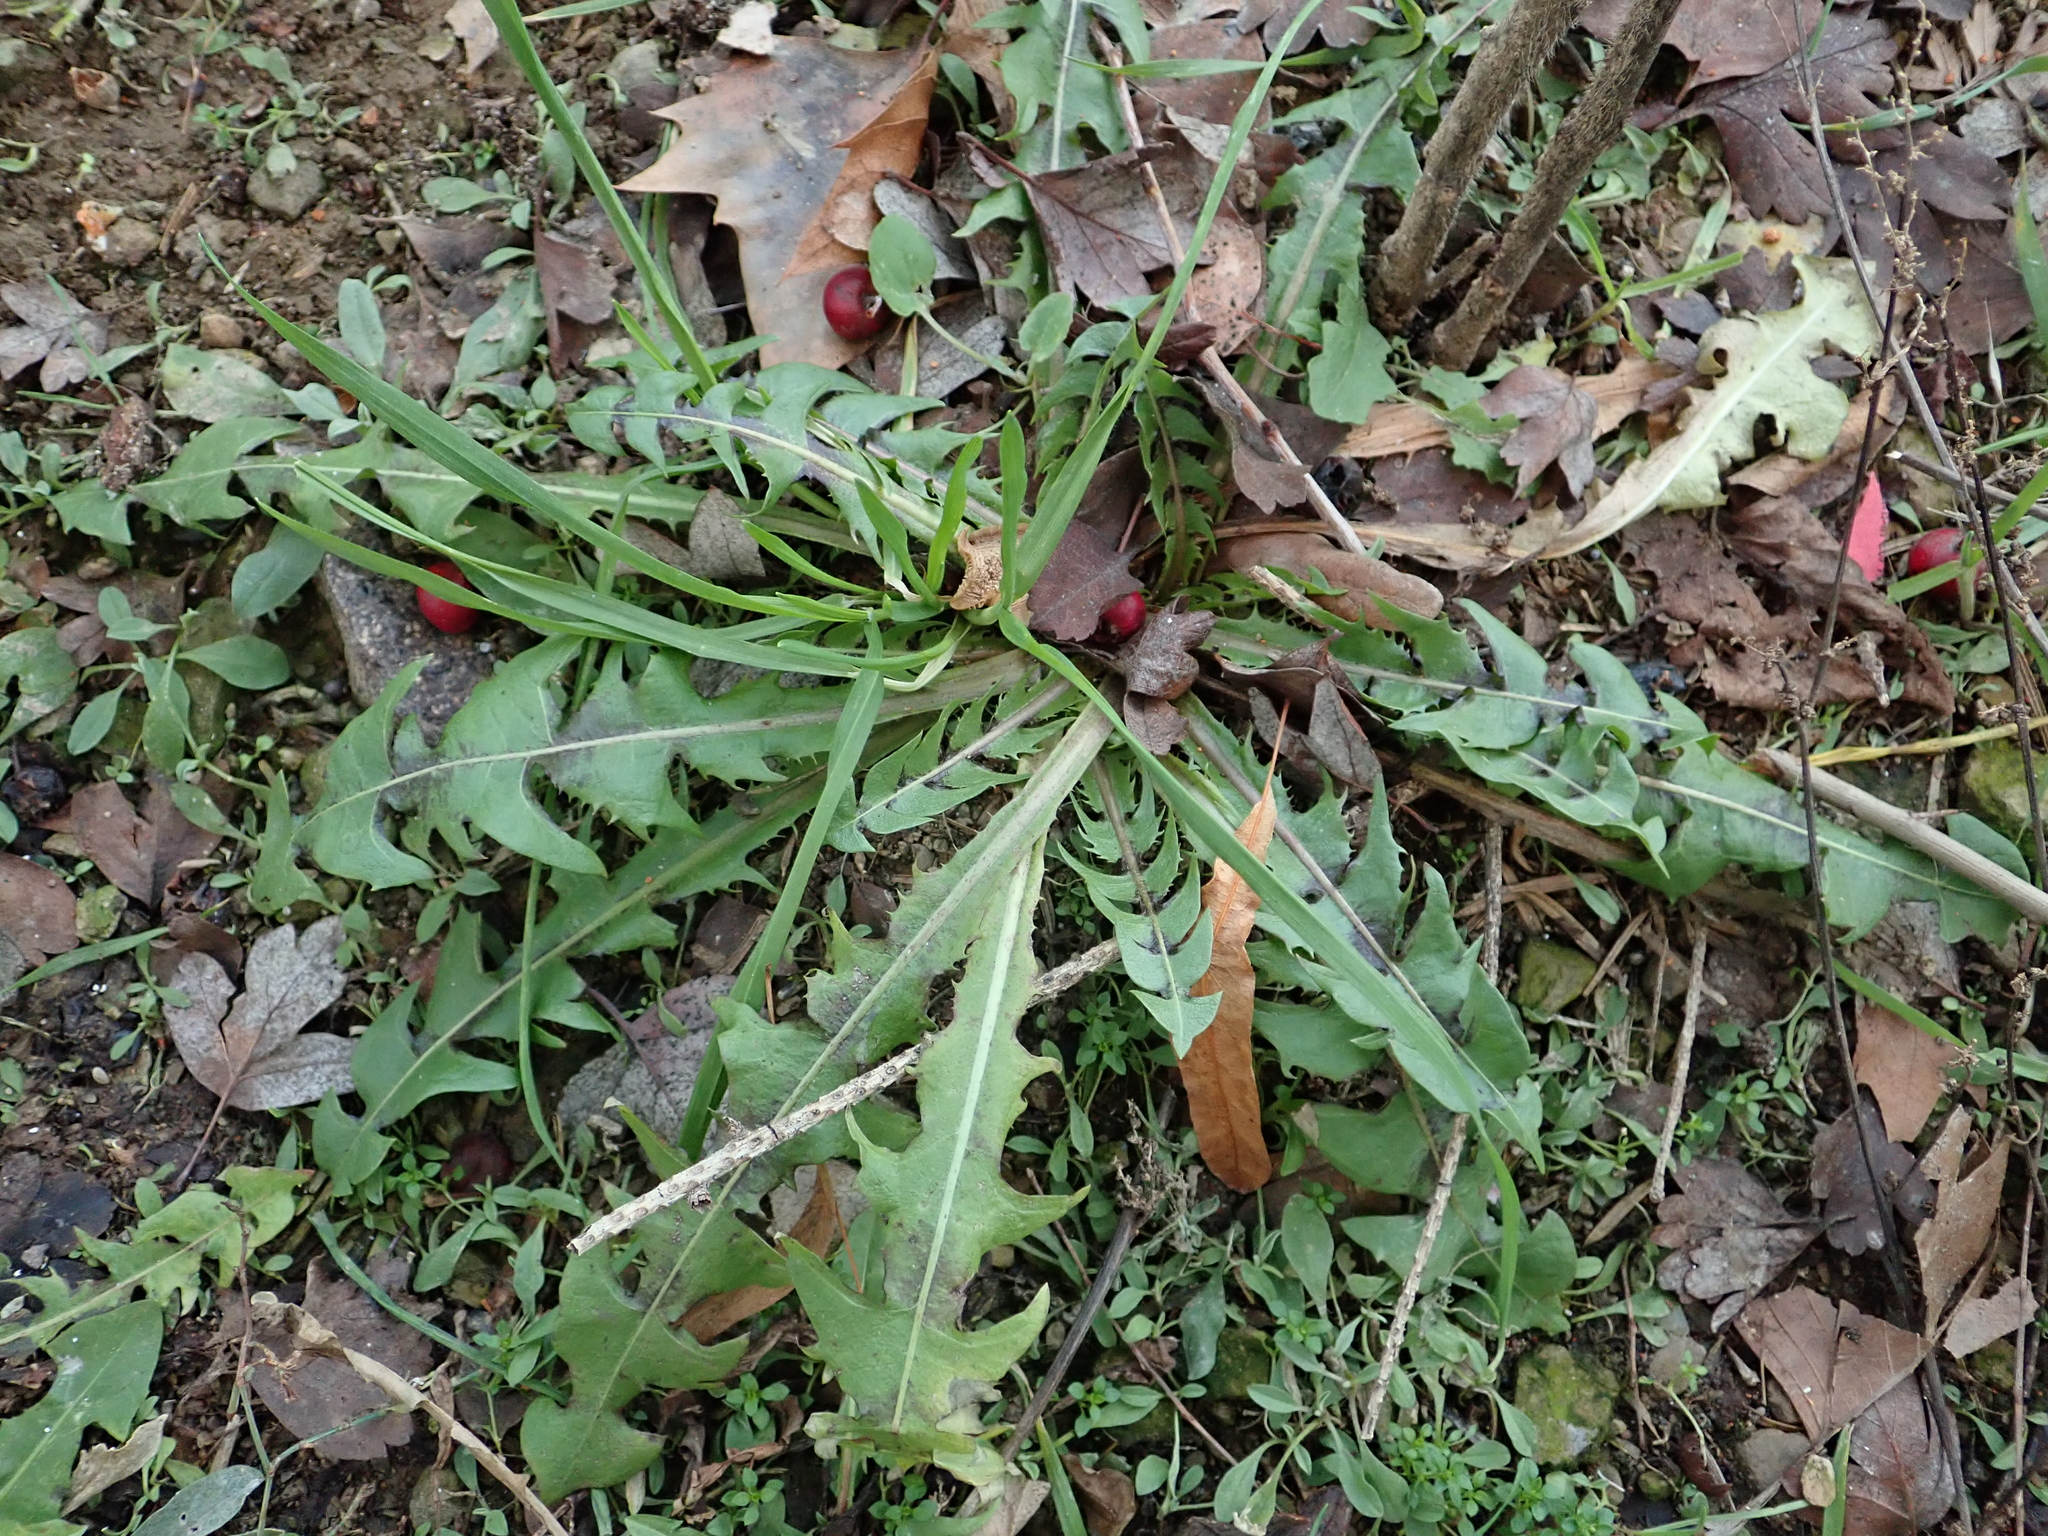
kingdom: Plantae
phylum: Tracheophyta
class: Magnoliopsida
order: Asterales
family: Asteraceae
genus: Taraxacum
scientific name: Taraxacum officinale
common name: Common dandelion
